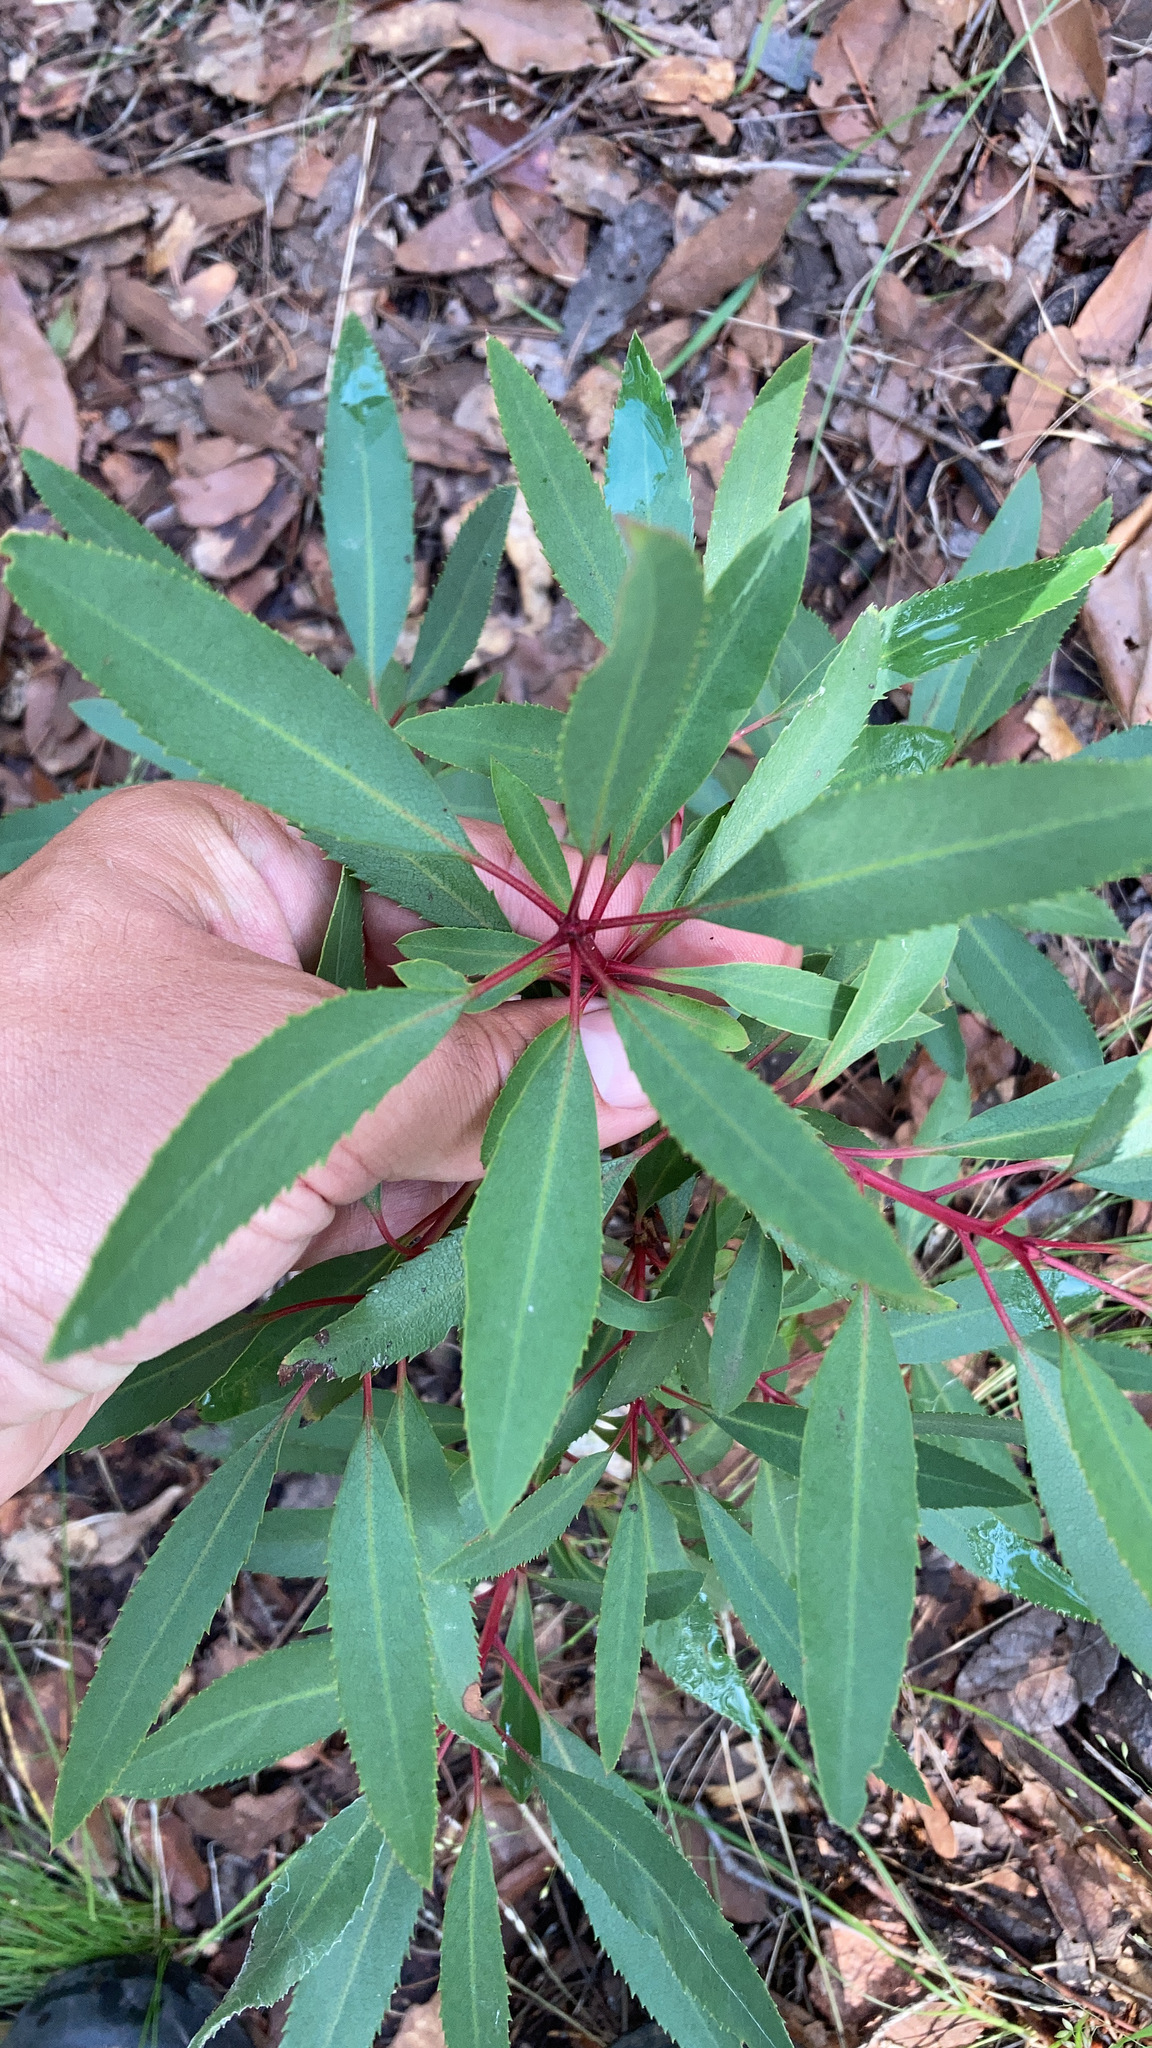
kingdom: Plantae
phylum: Tracheophyta
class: Magnoliopsida
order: Ericales
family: Ericaceae
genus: Arbutus
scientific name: Arbutus arizonica
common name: Arizona madrone
